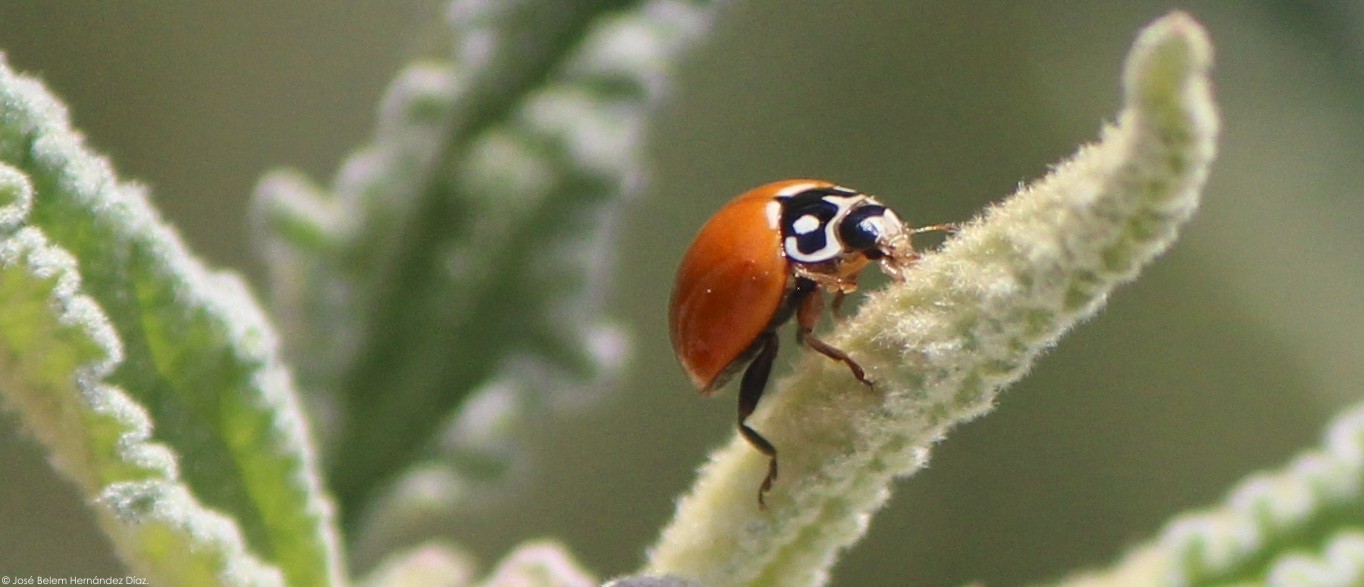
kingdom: Animalia
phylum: Arthropoda
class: Insecta
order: Coleoptera
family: Coccinellidae
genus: Cycloneda
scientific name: Cycloneda sanguinea
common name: Ladybird beetle
